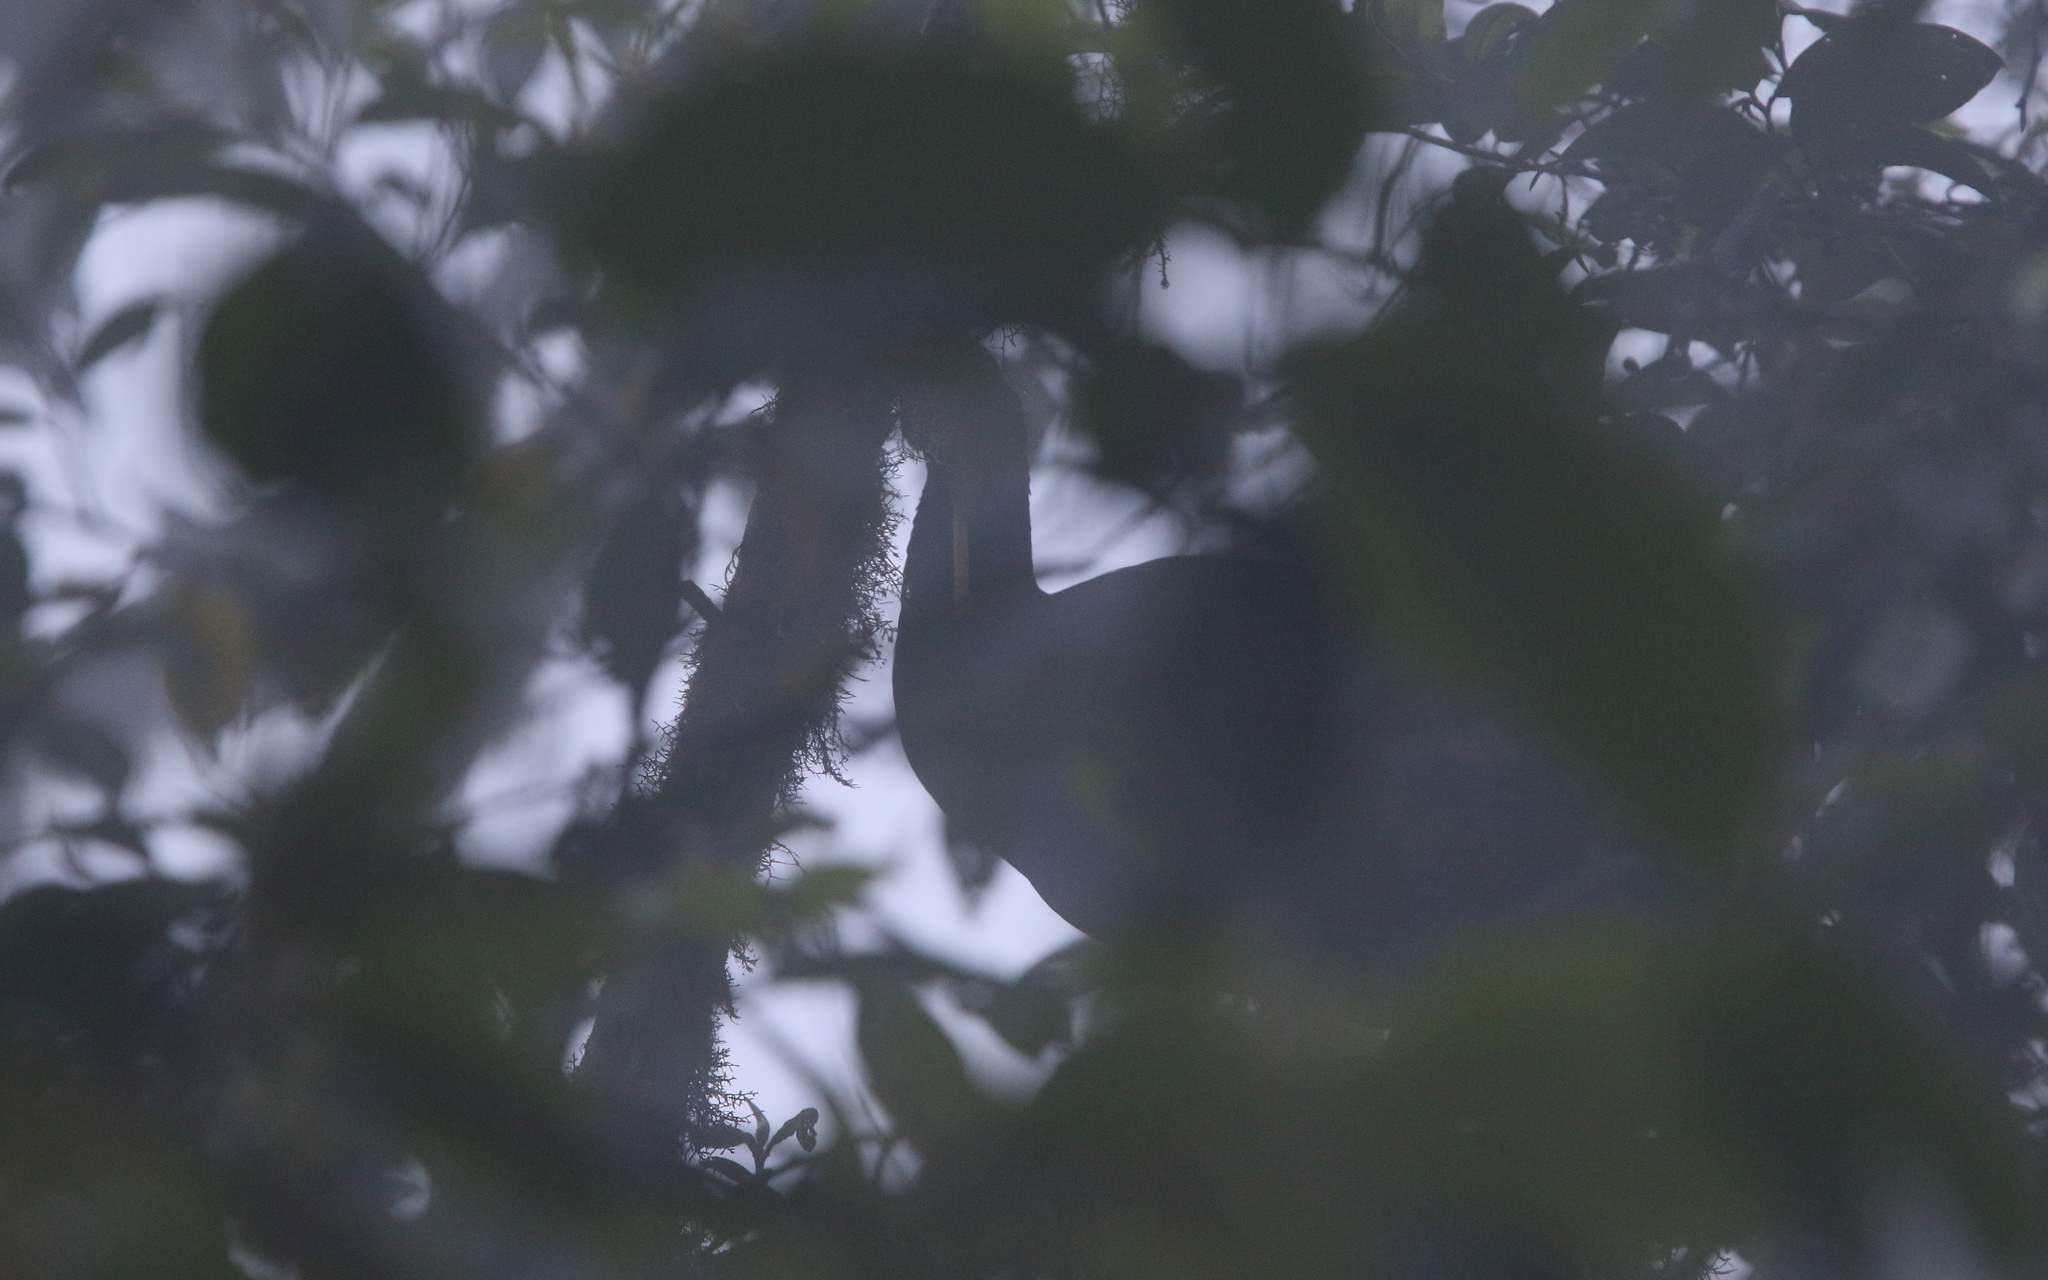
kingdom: Animalia
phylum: Chordata
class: Aves
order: Galliformes
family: Cracidae
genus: Aburria
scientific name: Aburria aburri
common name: Wattled guan
